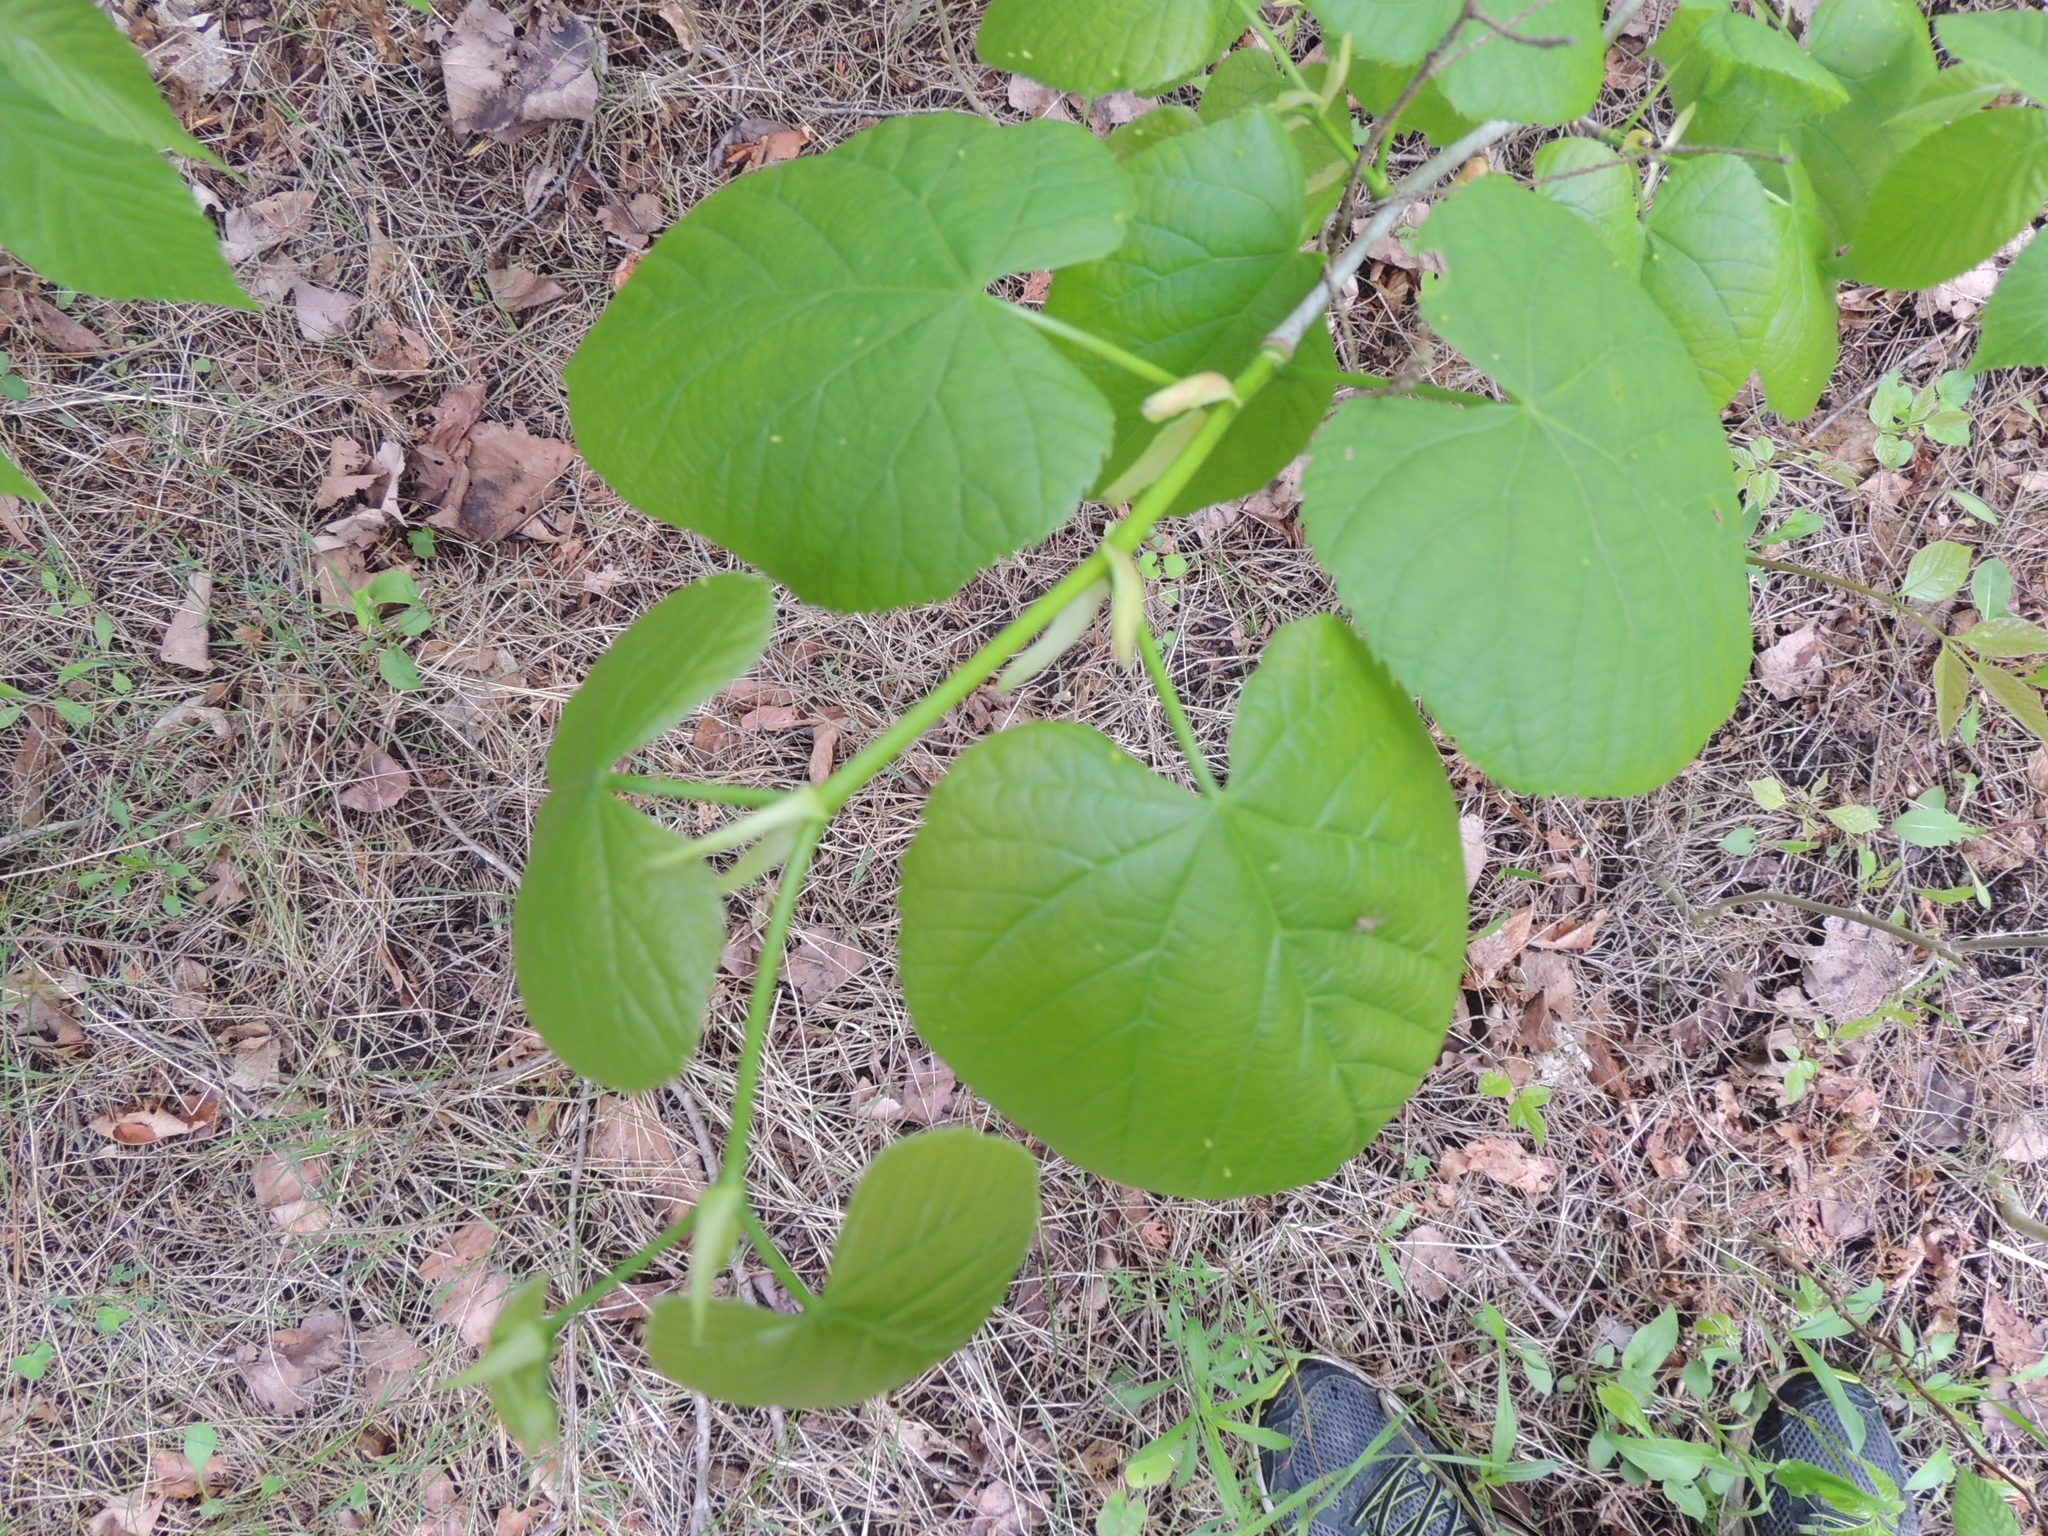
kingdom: Plantae
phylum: Tracheophyta
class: Magnoliopsida
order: Malvales
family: Malvaceae
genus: Tilia
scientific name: Tilia americana
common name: Basswood
